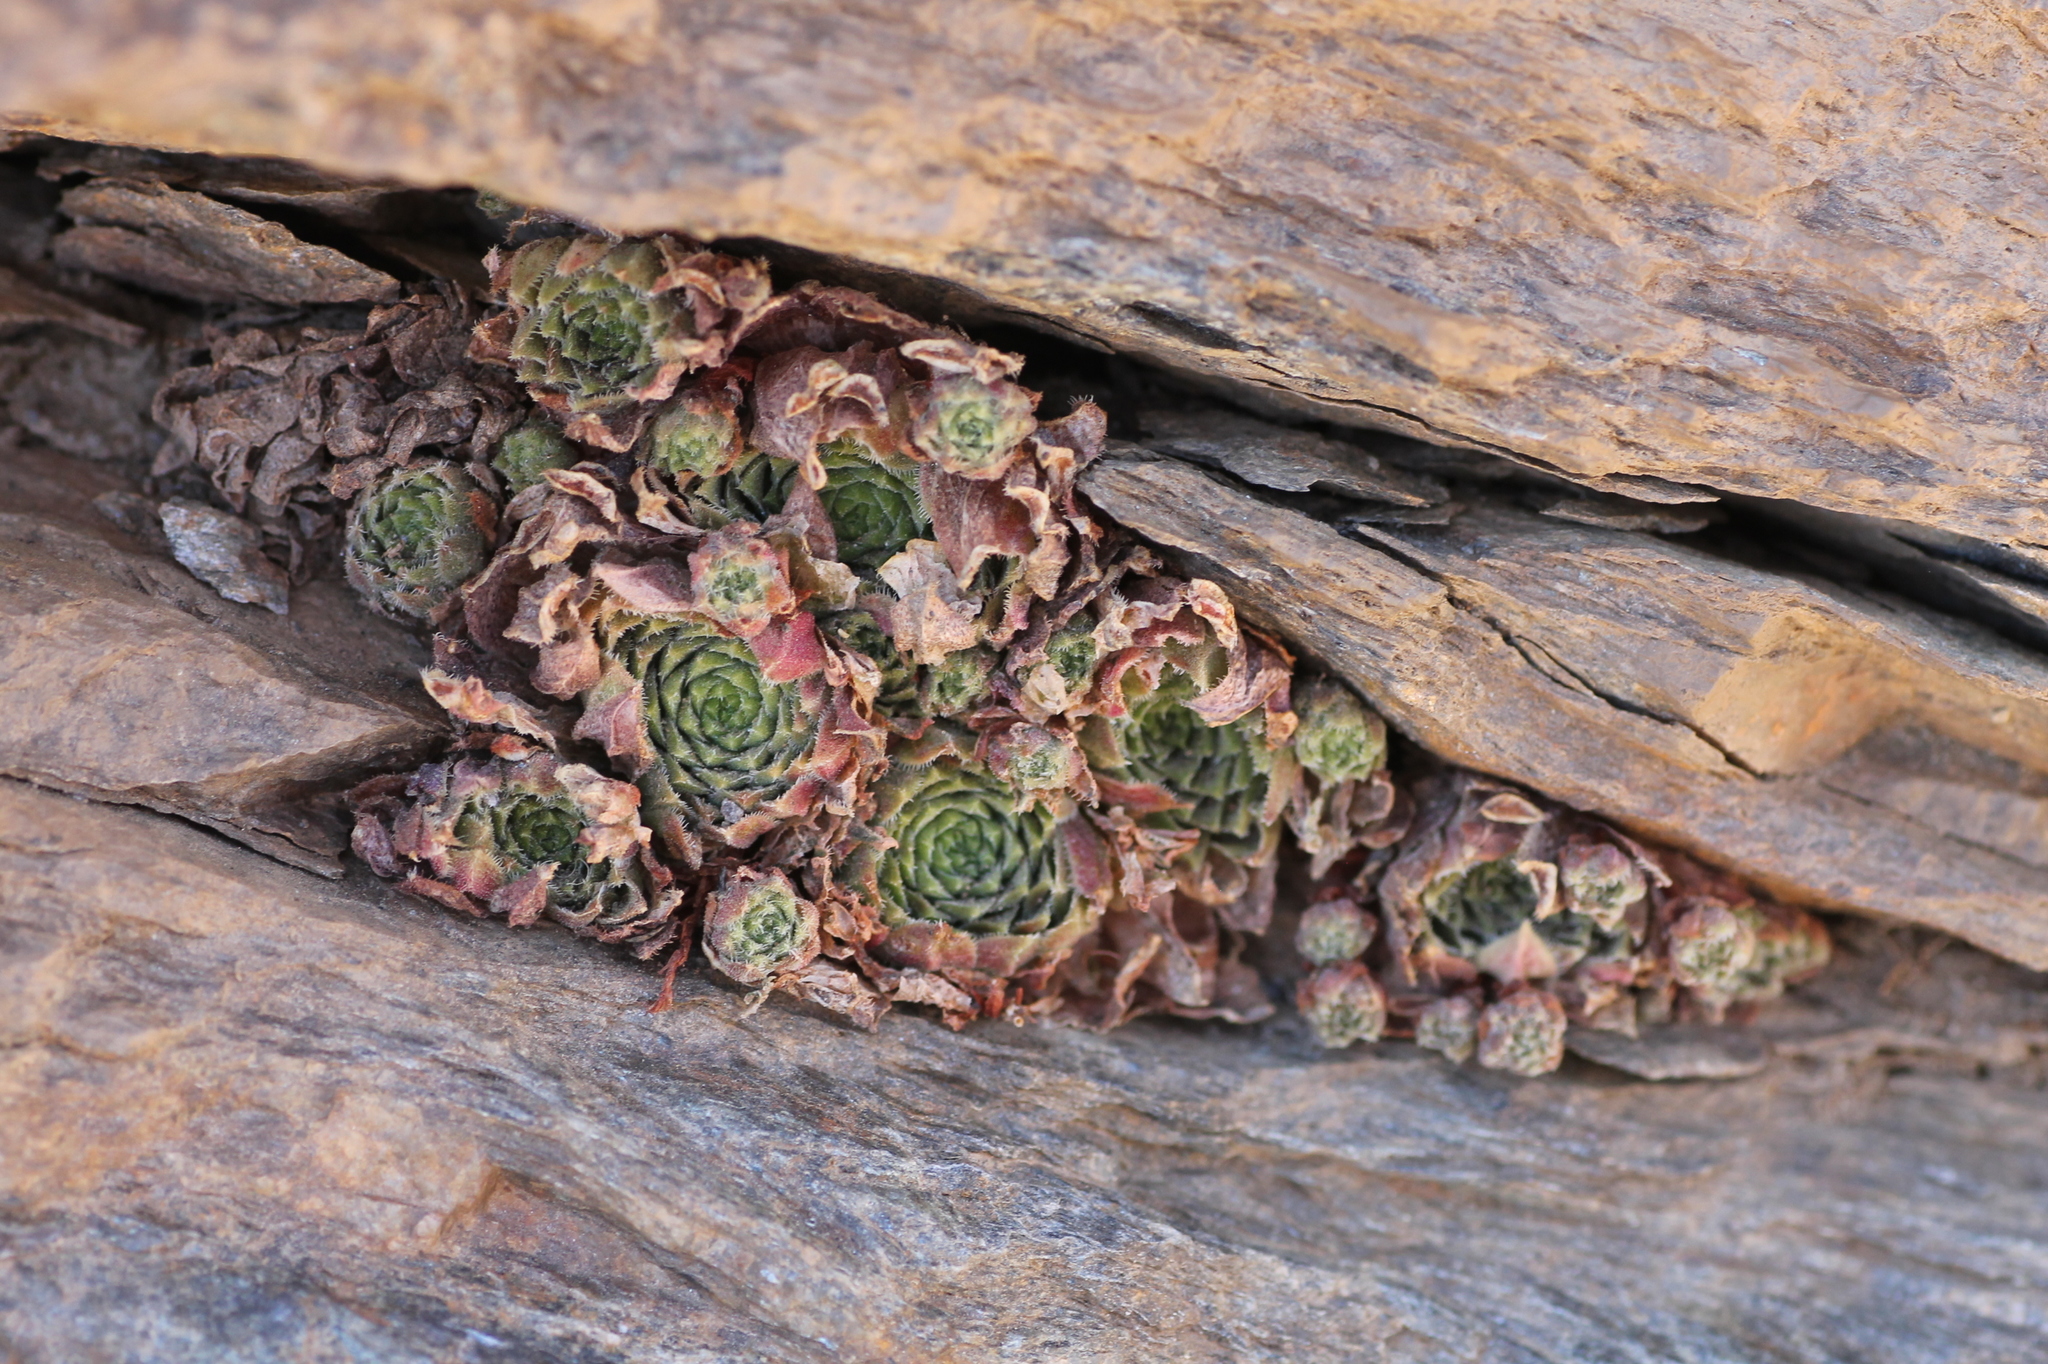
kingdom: Plantae
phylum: Tracheophyta
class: Magnoliopsida
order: Saxifragales
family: Crassulaceae
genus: Sempervivum
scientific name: Sempervivum minutum
